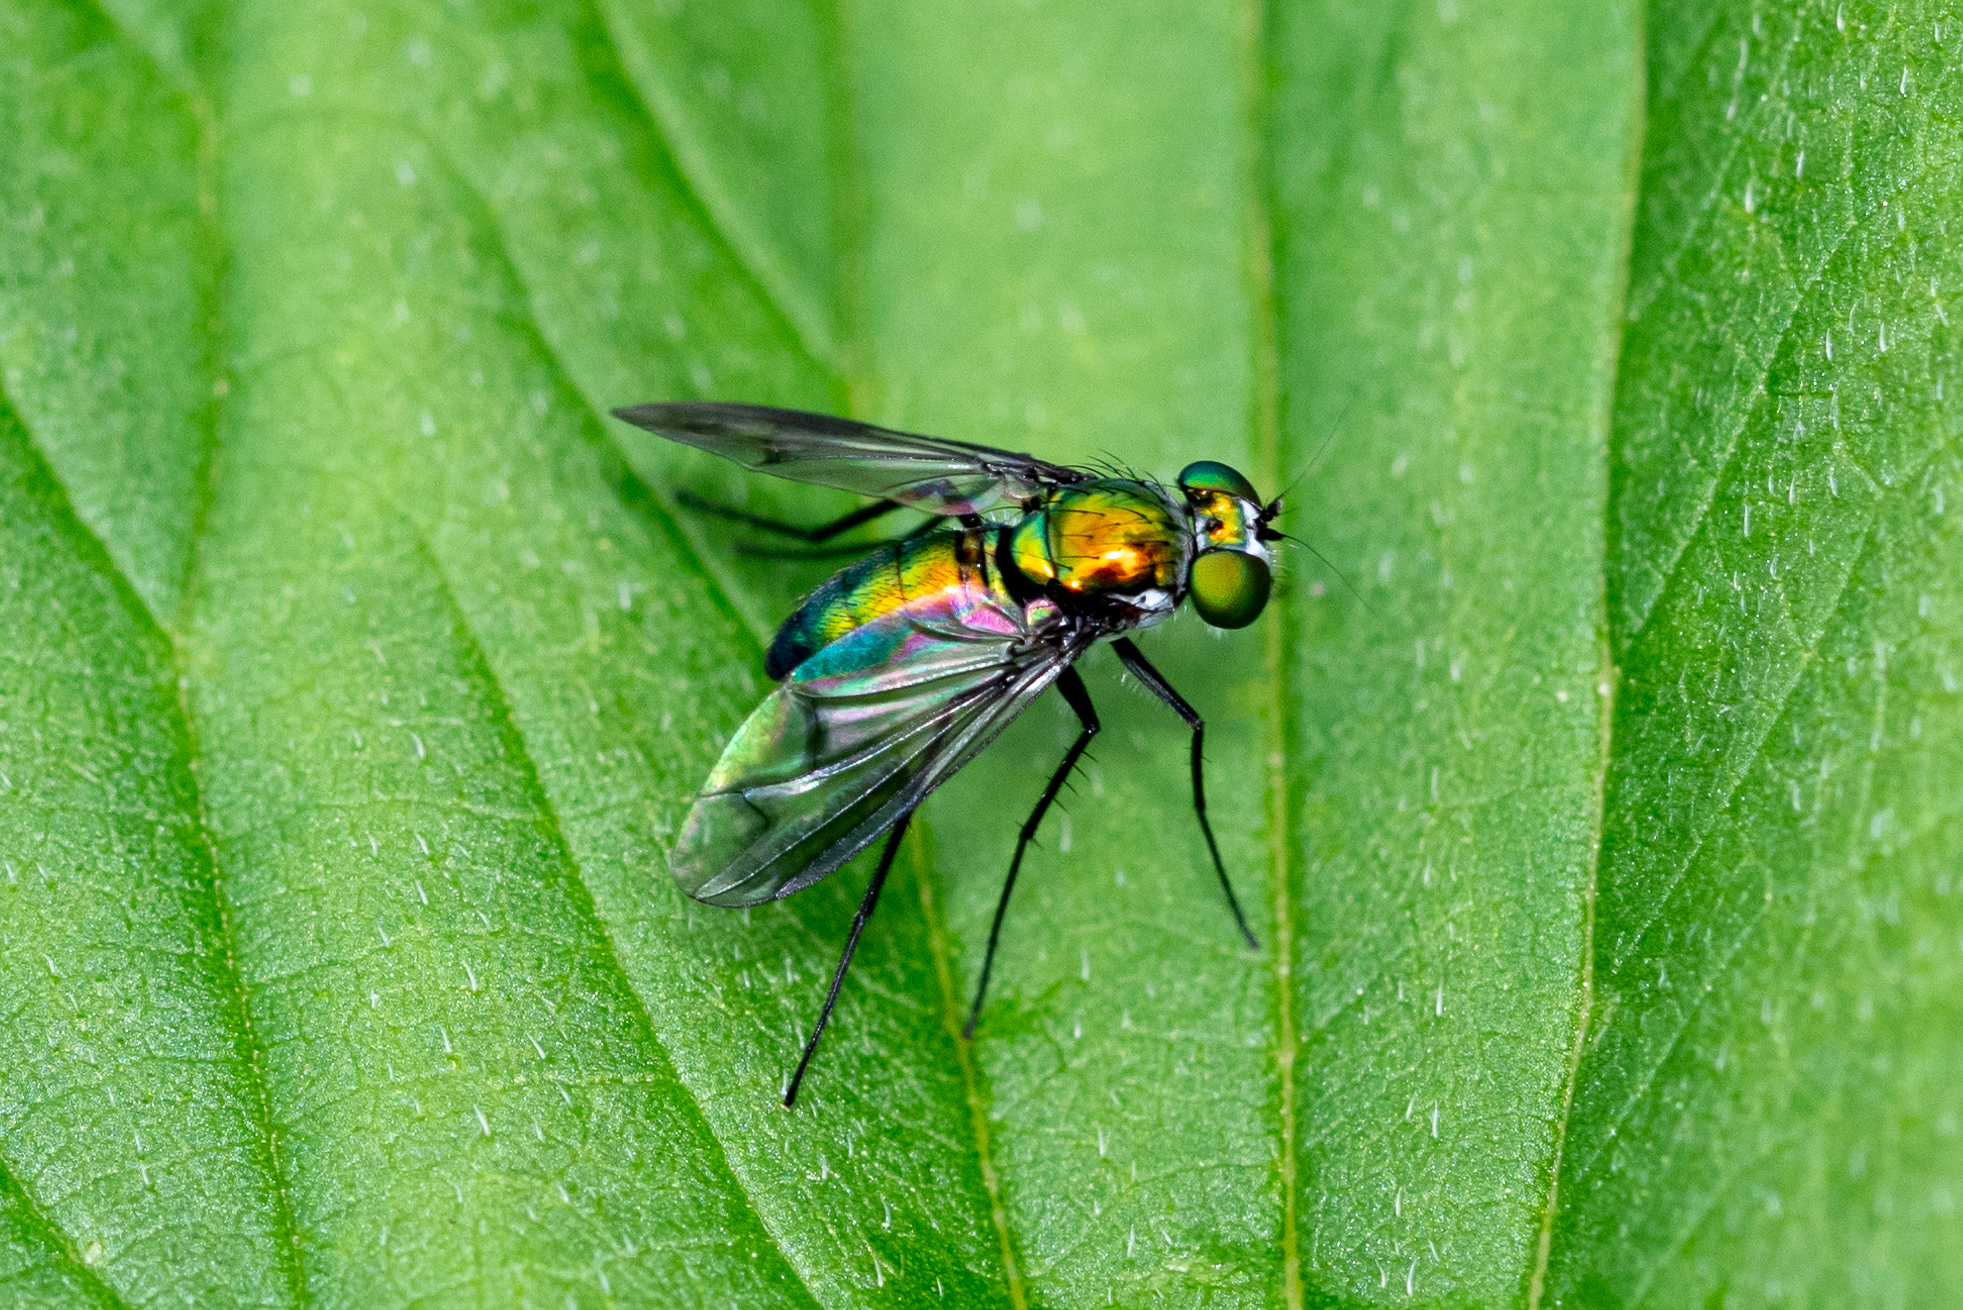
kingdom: Animalia
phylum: Arthropoda
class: Insecta
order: Diptera
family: Dolichopodidae
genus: Condylostylus
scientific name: Condylostylus patibulatus
